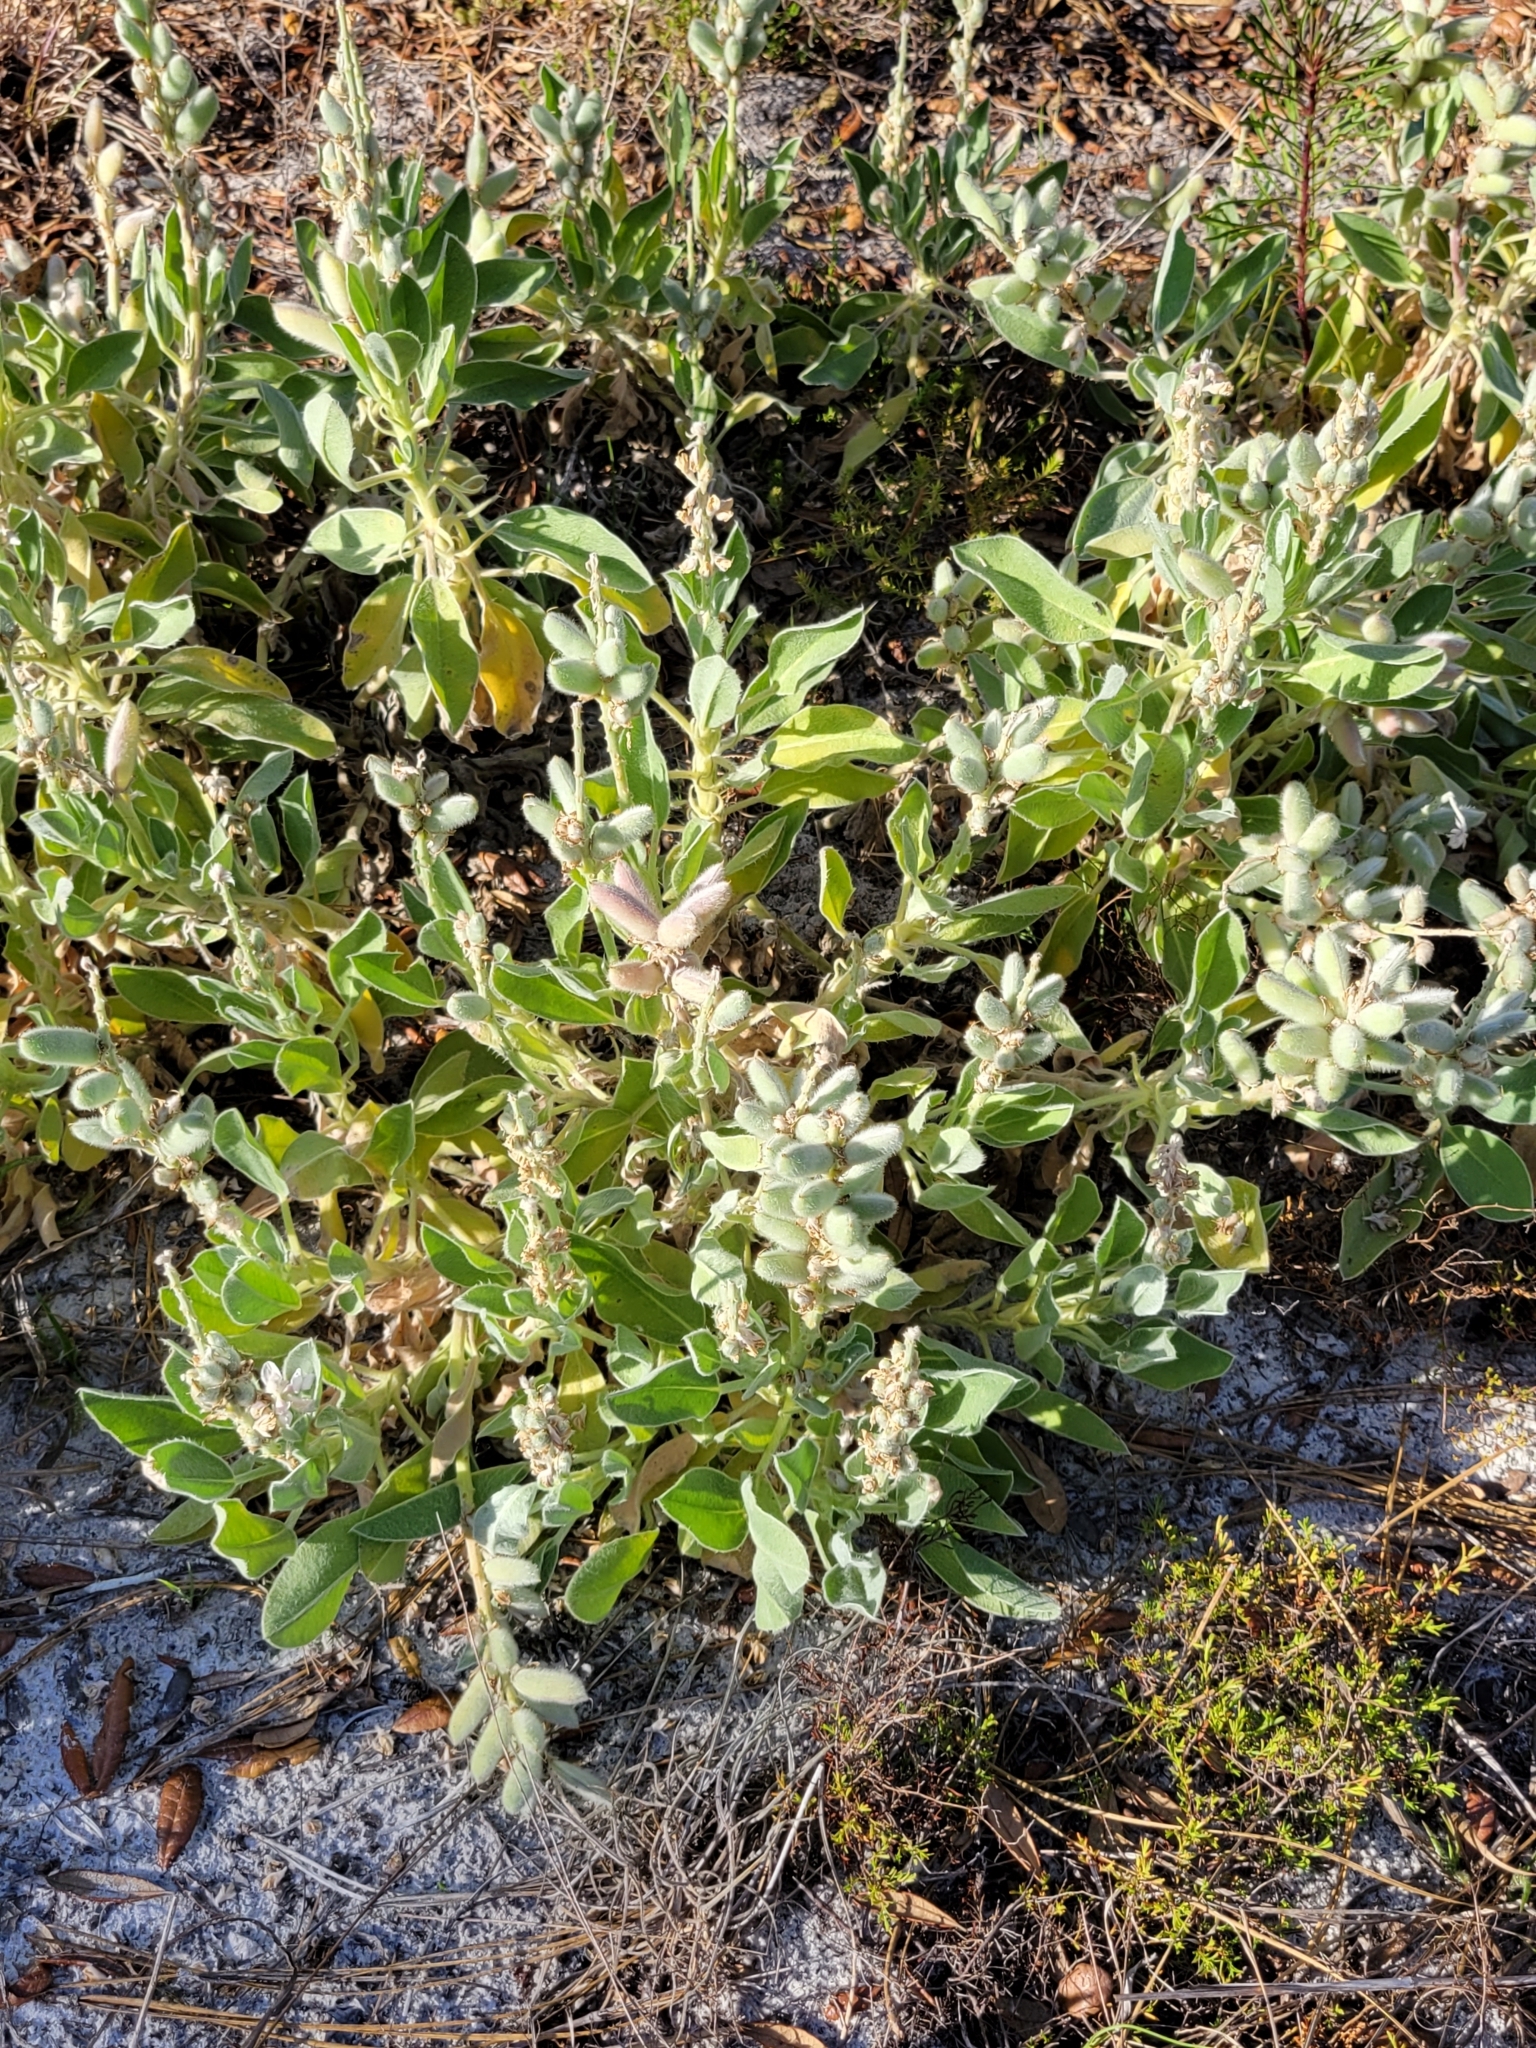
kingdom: Plantae
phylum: Tracheophyta
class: Magnoliopsida
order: Fabales
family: Fabaceae
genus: Lupinus
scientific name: Lupinus
